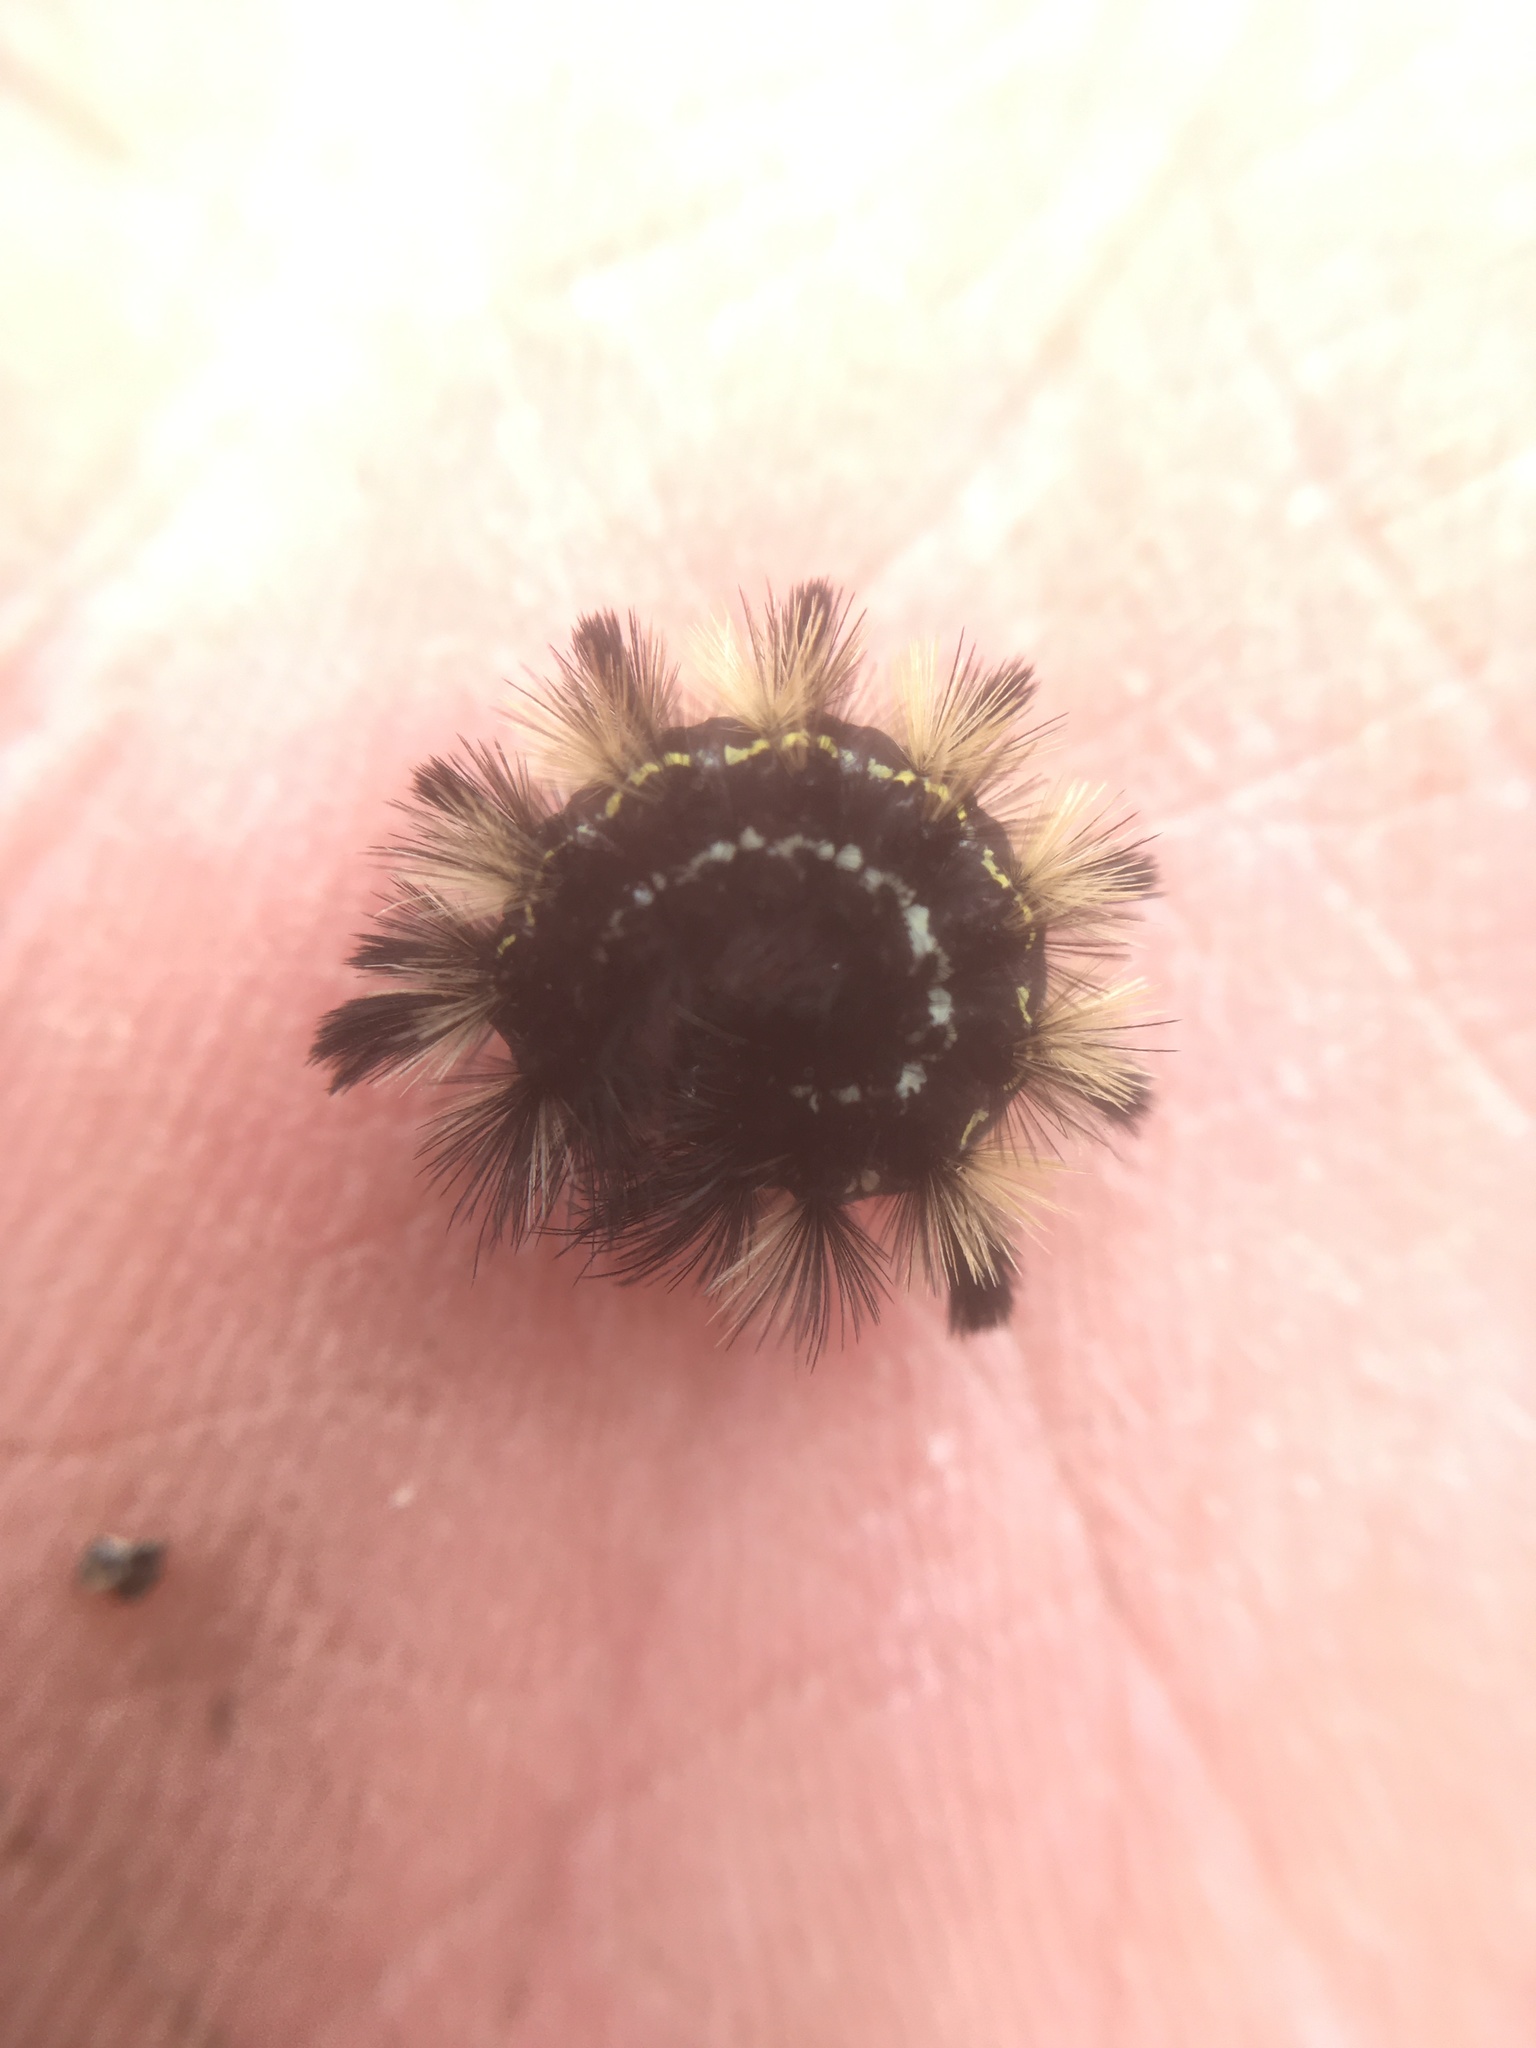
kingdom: Animalia
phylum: Arthropoda
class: Insecta
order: Lepidoptera
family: Erebidae
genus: Ctenucha
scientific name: Ctenucha virginica
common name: Virginia ctenucha moth
